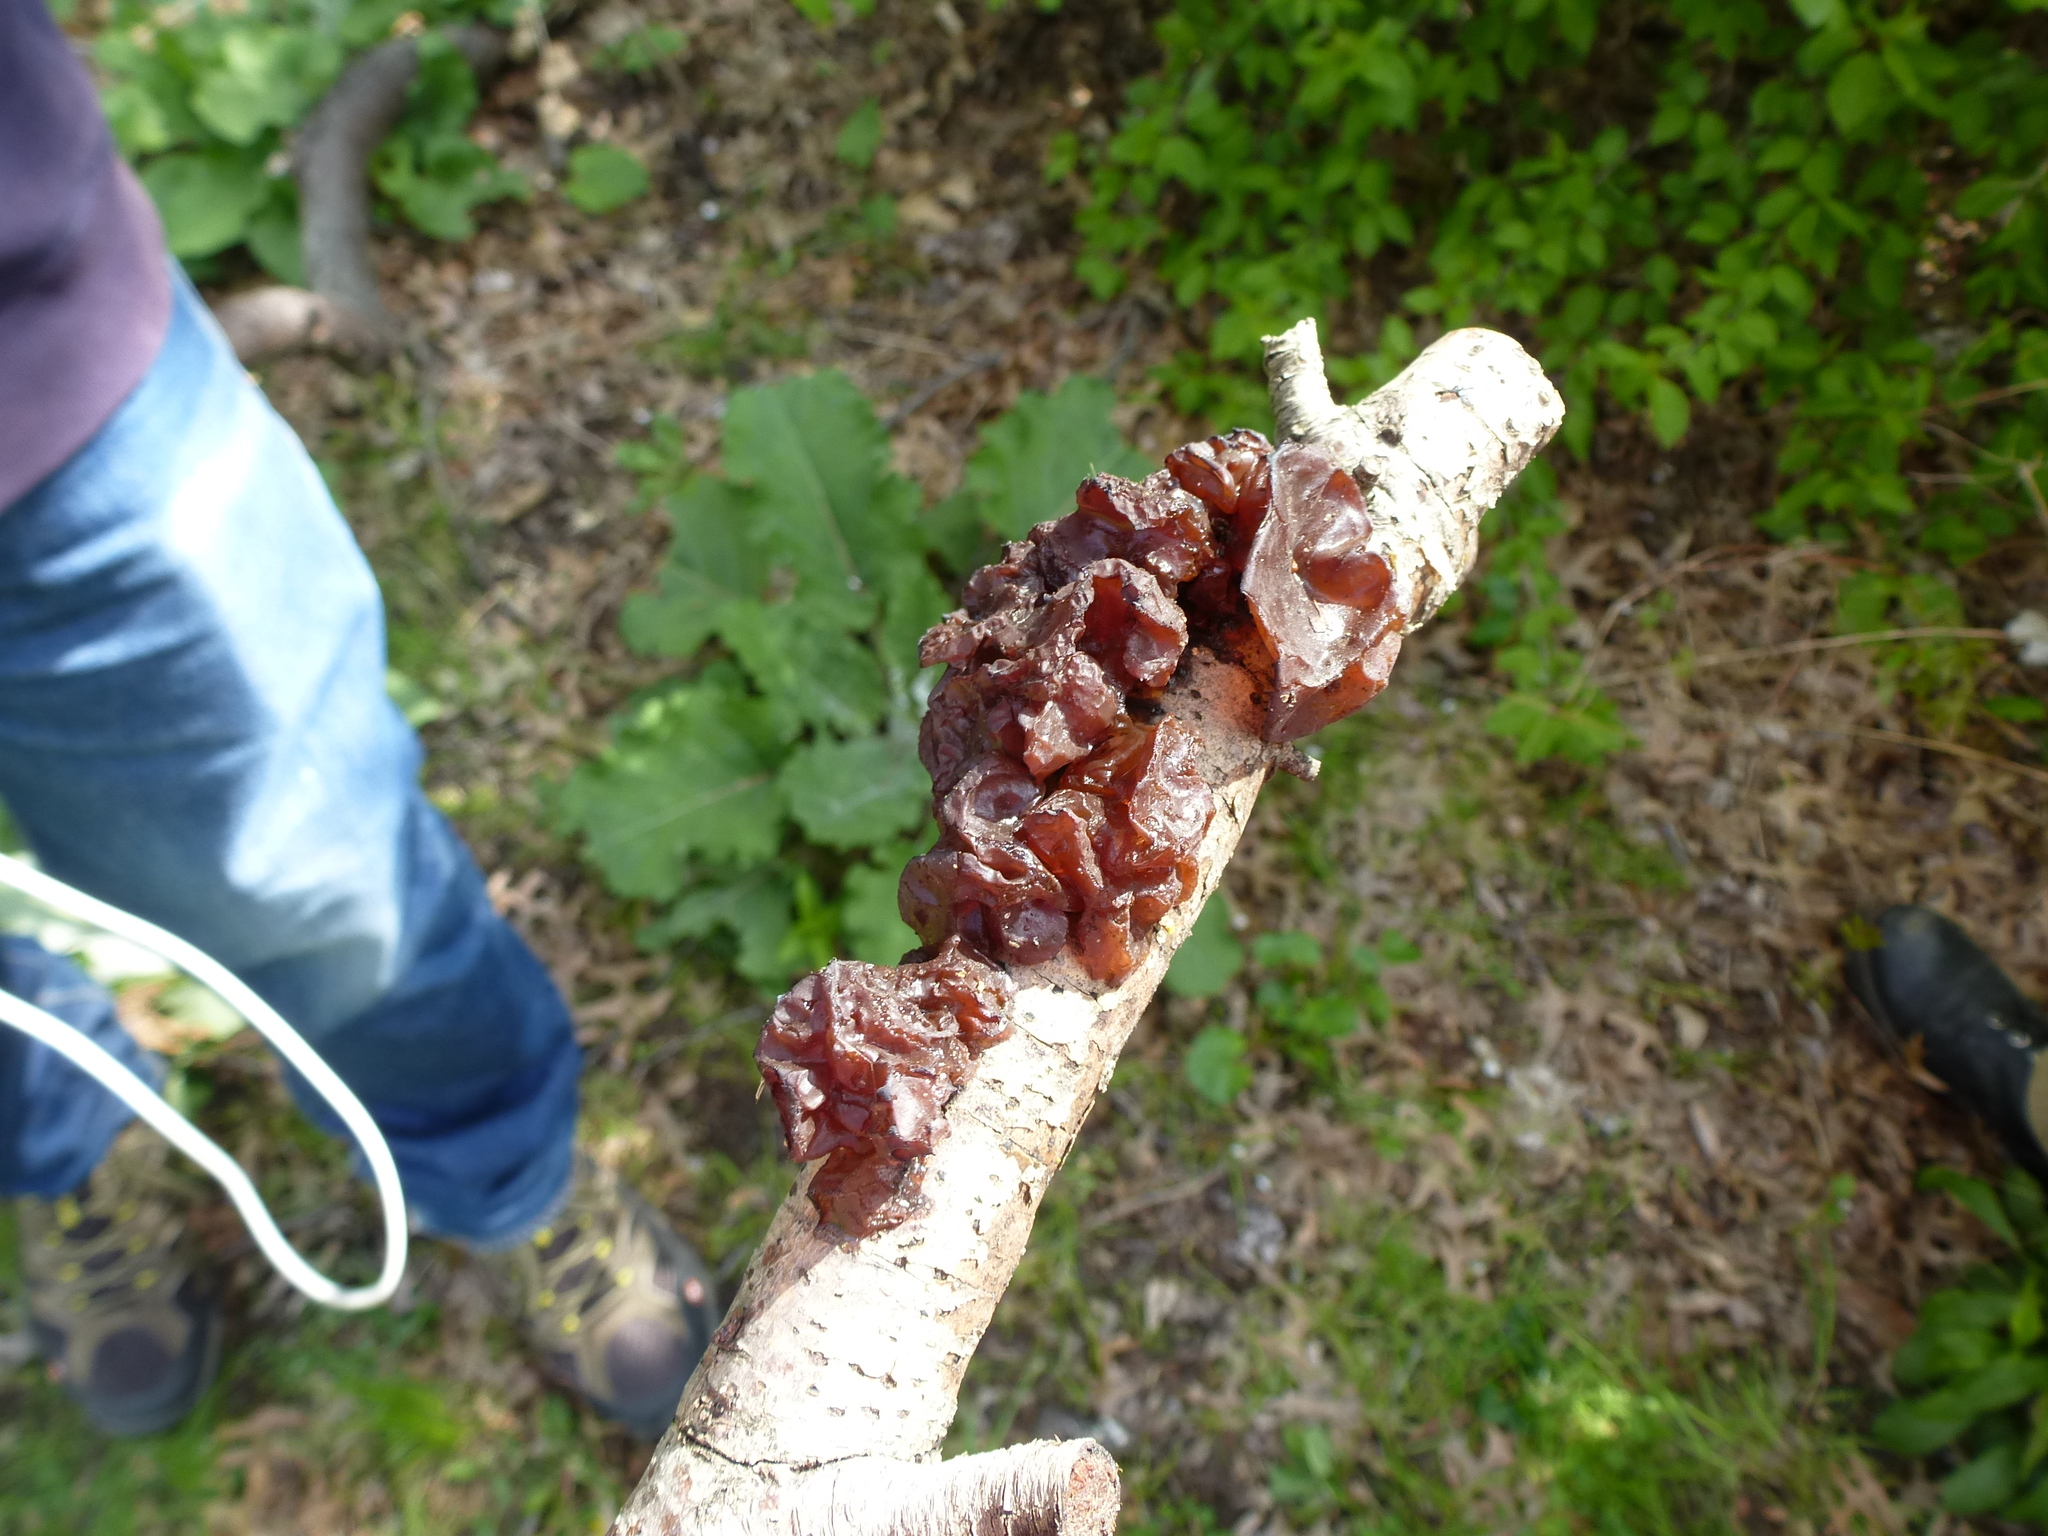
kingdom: Fungi
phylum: Basidiomycota
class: Agaricomycetes
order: Auriculariales
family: Auriculariaceae
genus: Exidia
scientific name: Exidia
